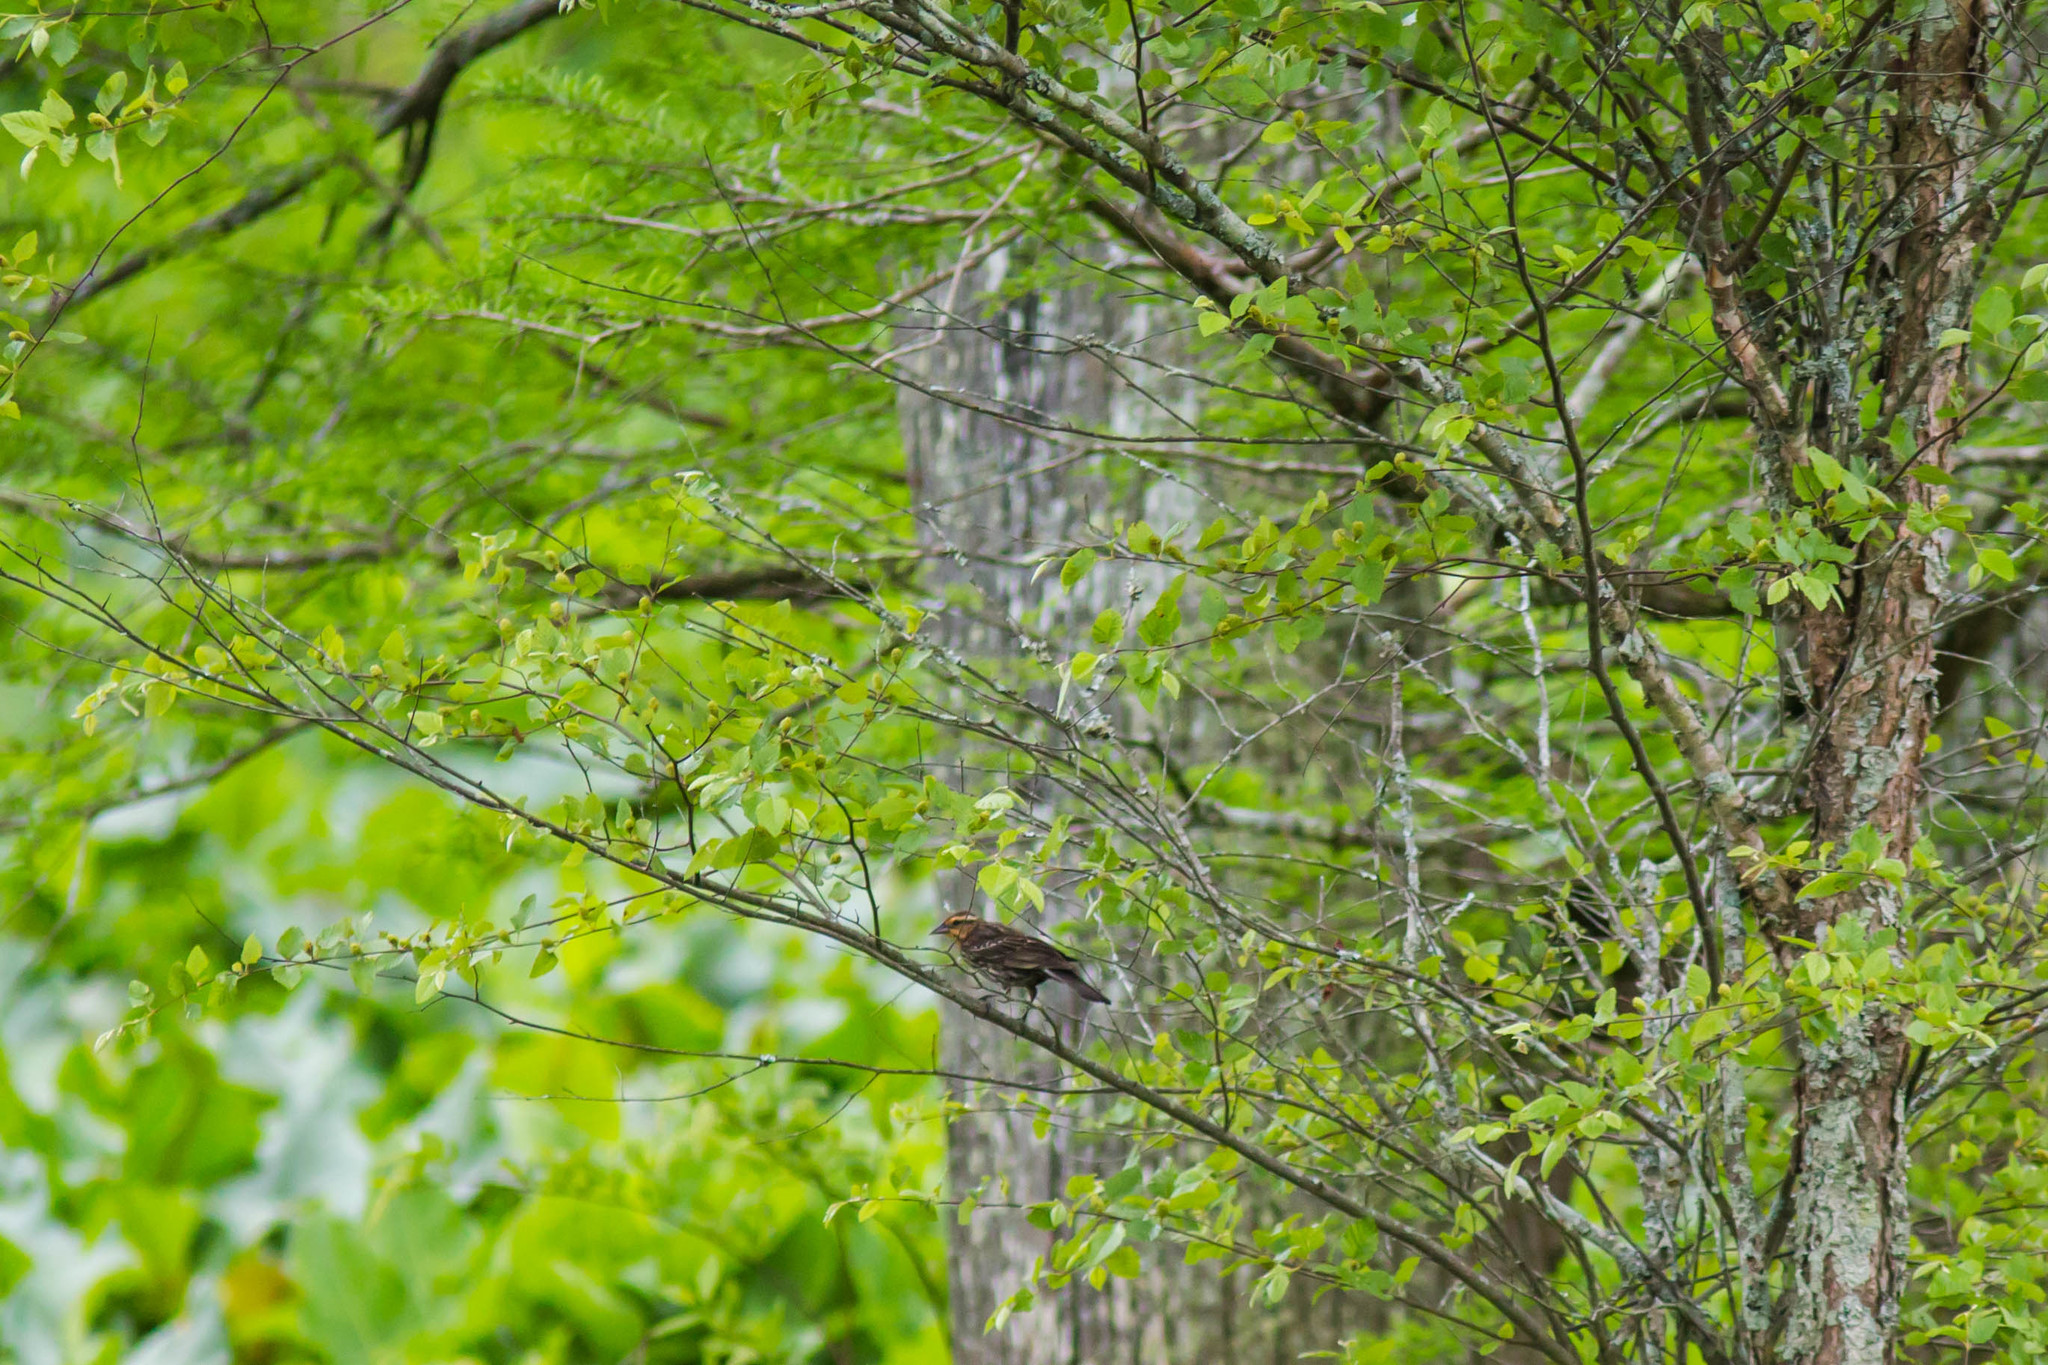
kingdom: Animalia
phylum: Chordata
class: Aves
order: Passeriformes
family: Icteridae
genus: Agelaius
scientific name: Agelaius phoeniceus
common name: Red-winged blackbird
